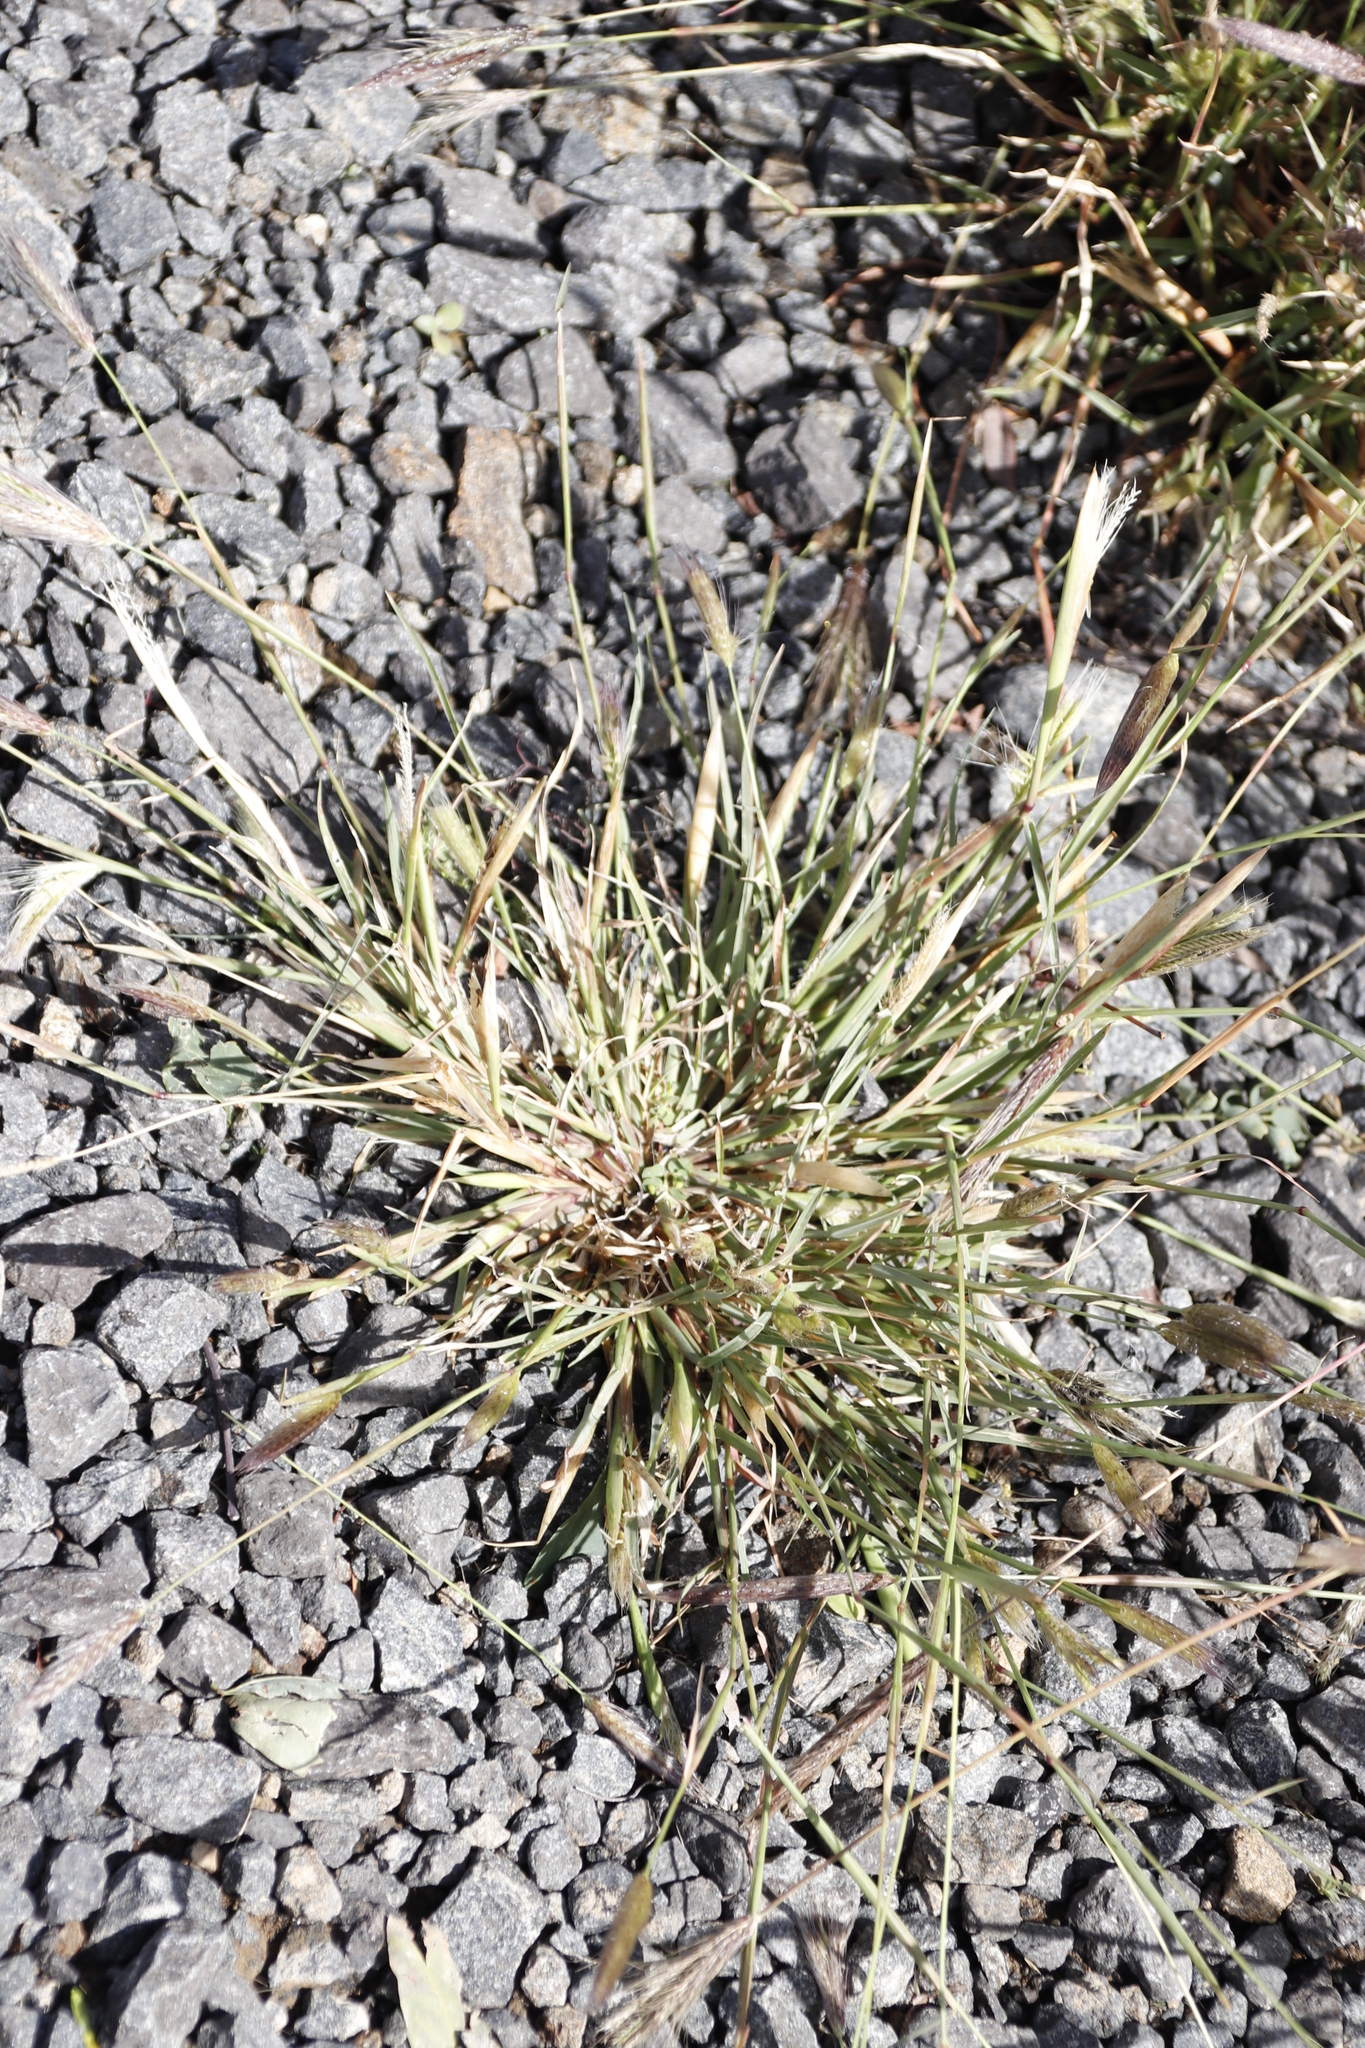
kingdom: Plantae
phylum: Tracheophyta
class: Liliopsida
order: Poales
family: Poaceae
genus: Chloris
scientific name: Chloris virgata
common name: Feathery rhodes-grass
